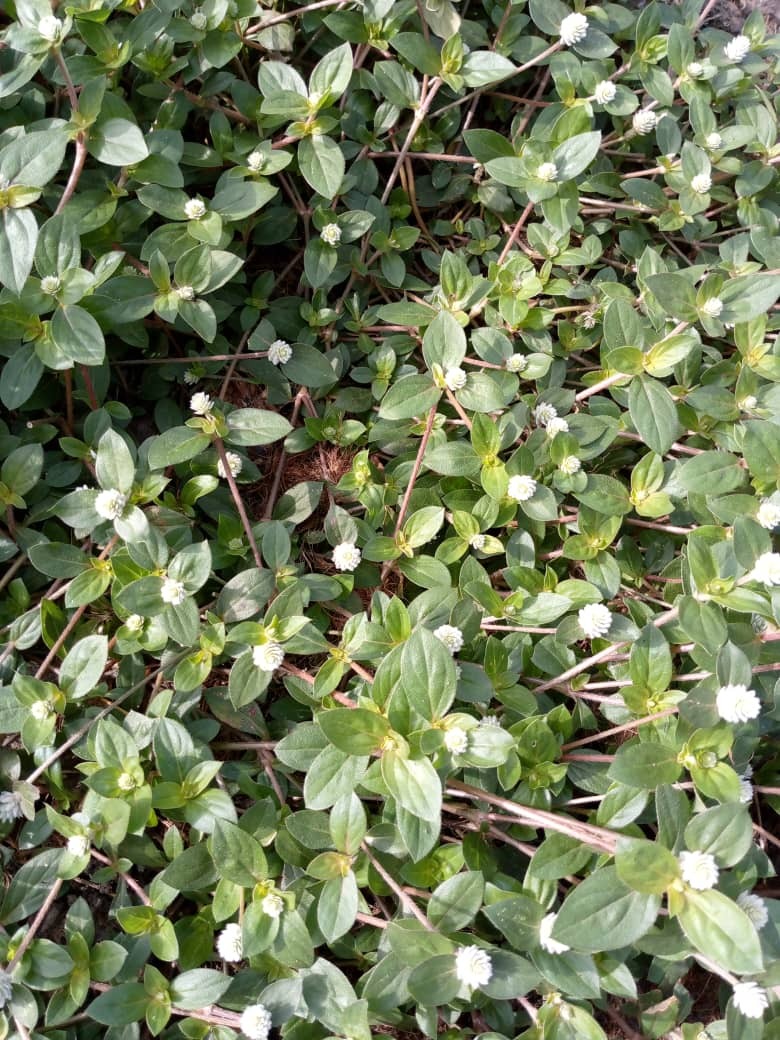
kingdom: Plantae
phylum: Tracheophyta
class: Magnoliopsida
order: Caryophyllales
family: Amaranthaceae
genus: Gomphrena
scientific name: Gomphrena celosioides
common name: Gomphrena-weed
